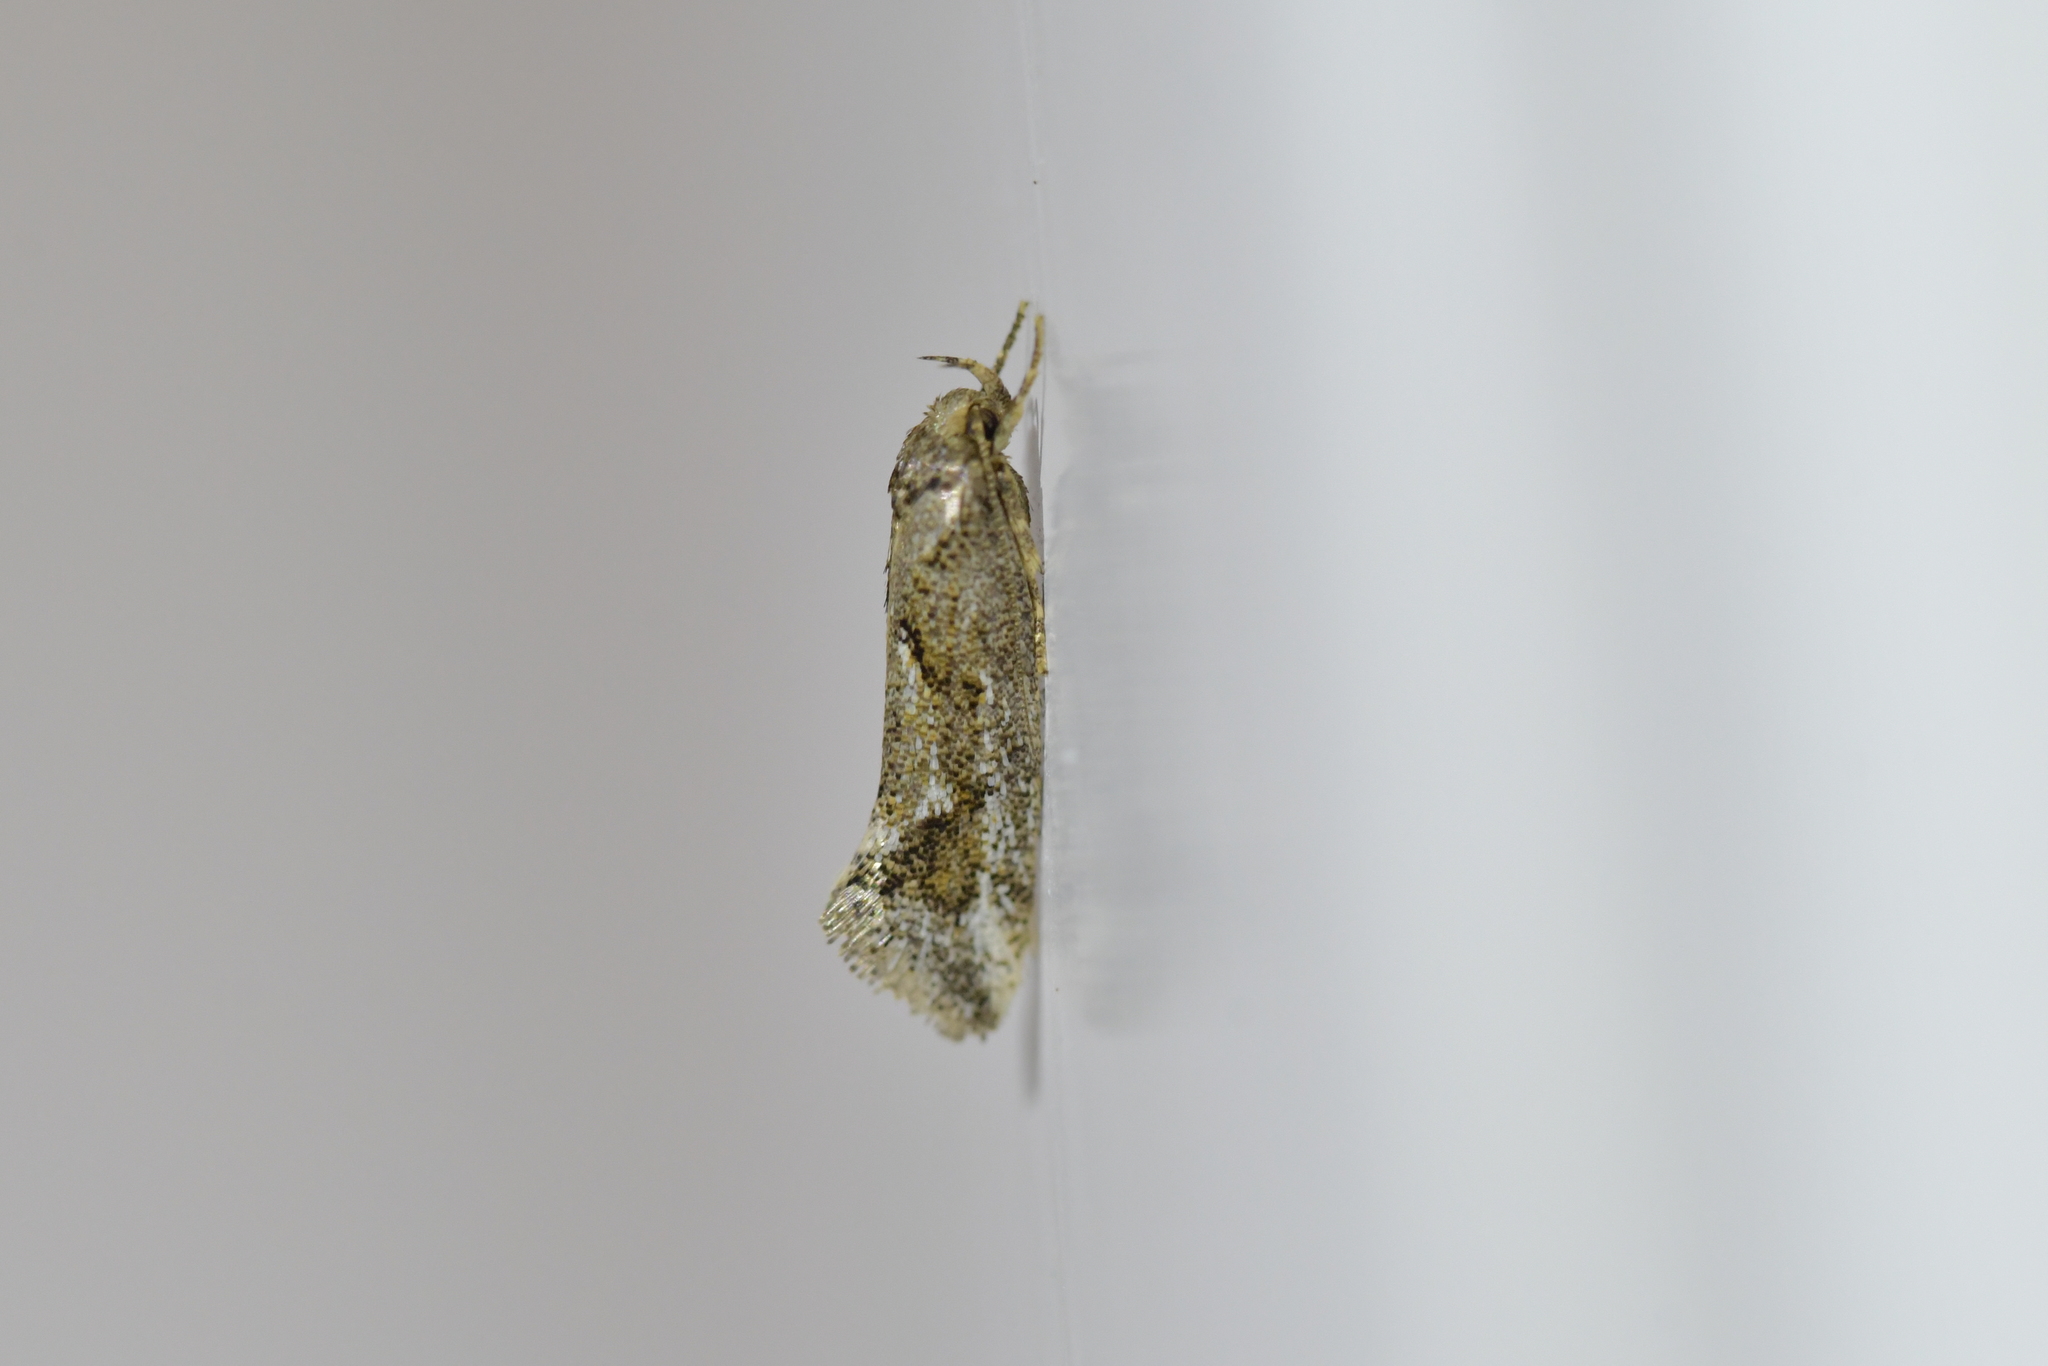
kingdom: Animalia
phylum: Arthropoda
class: Insecta
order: Lepidoptera
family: Oecophoridae
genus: Tingena
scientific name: Tingena hemimochla
